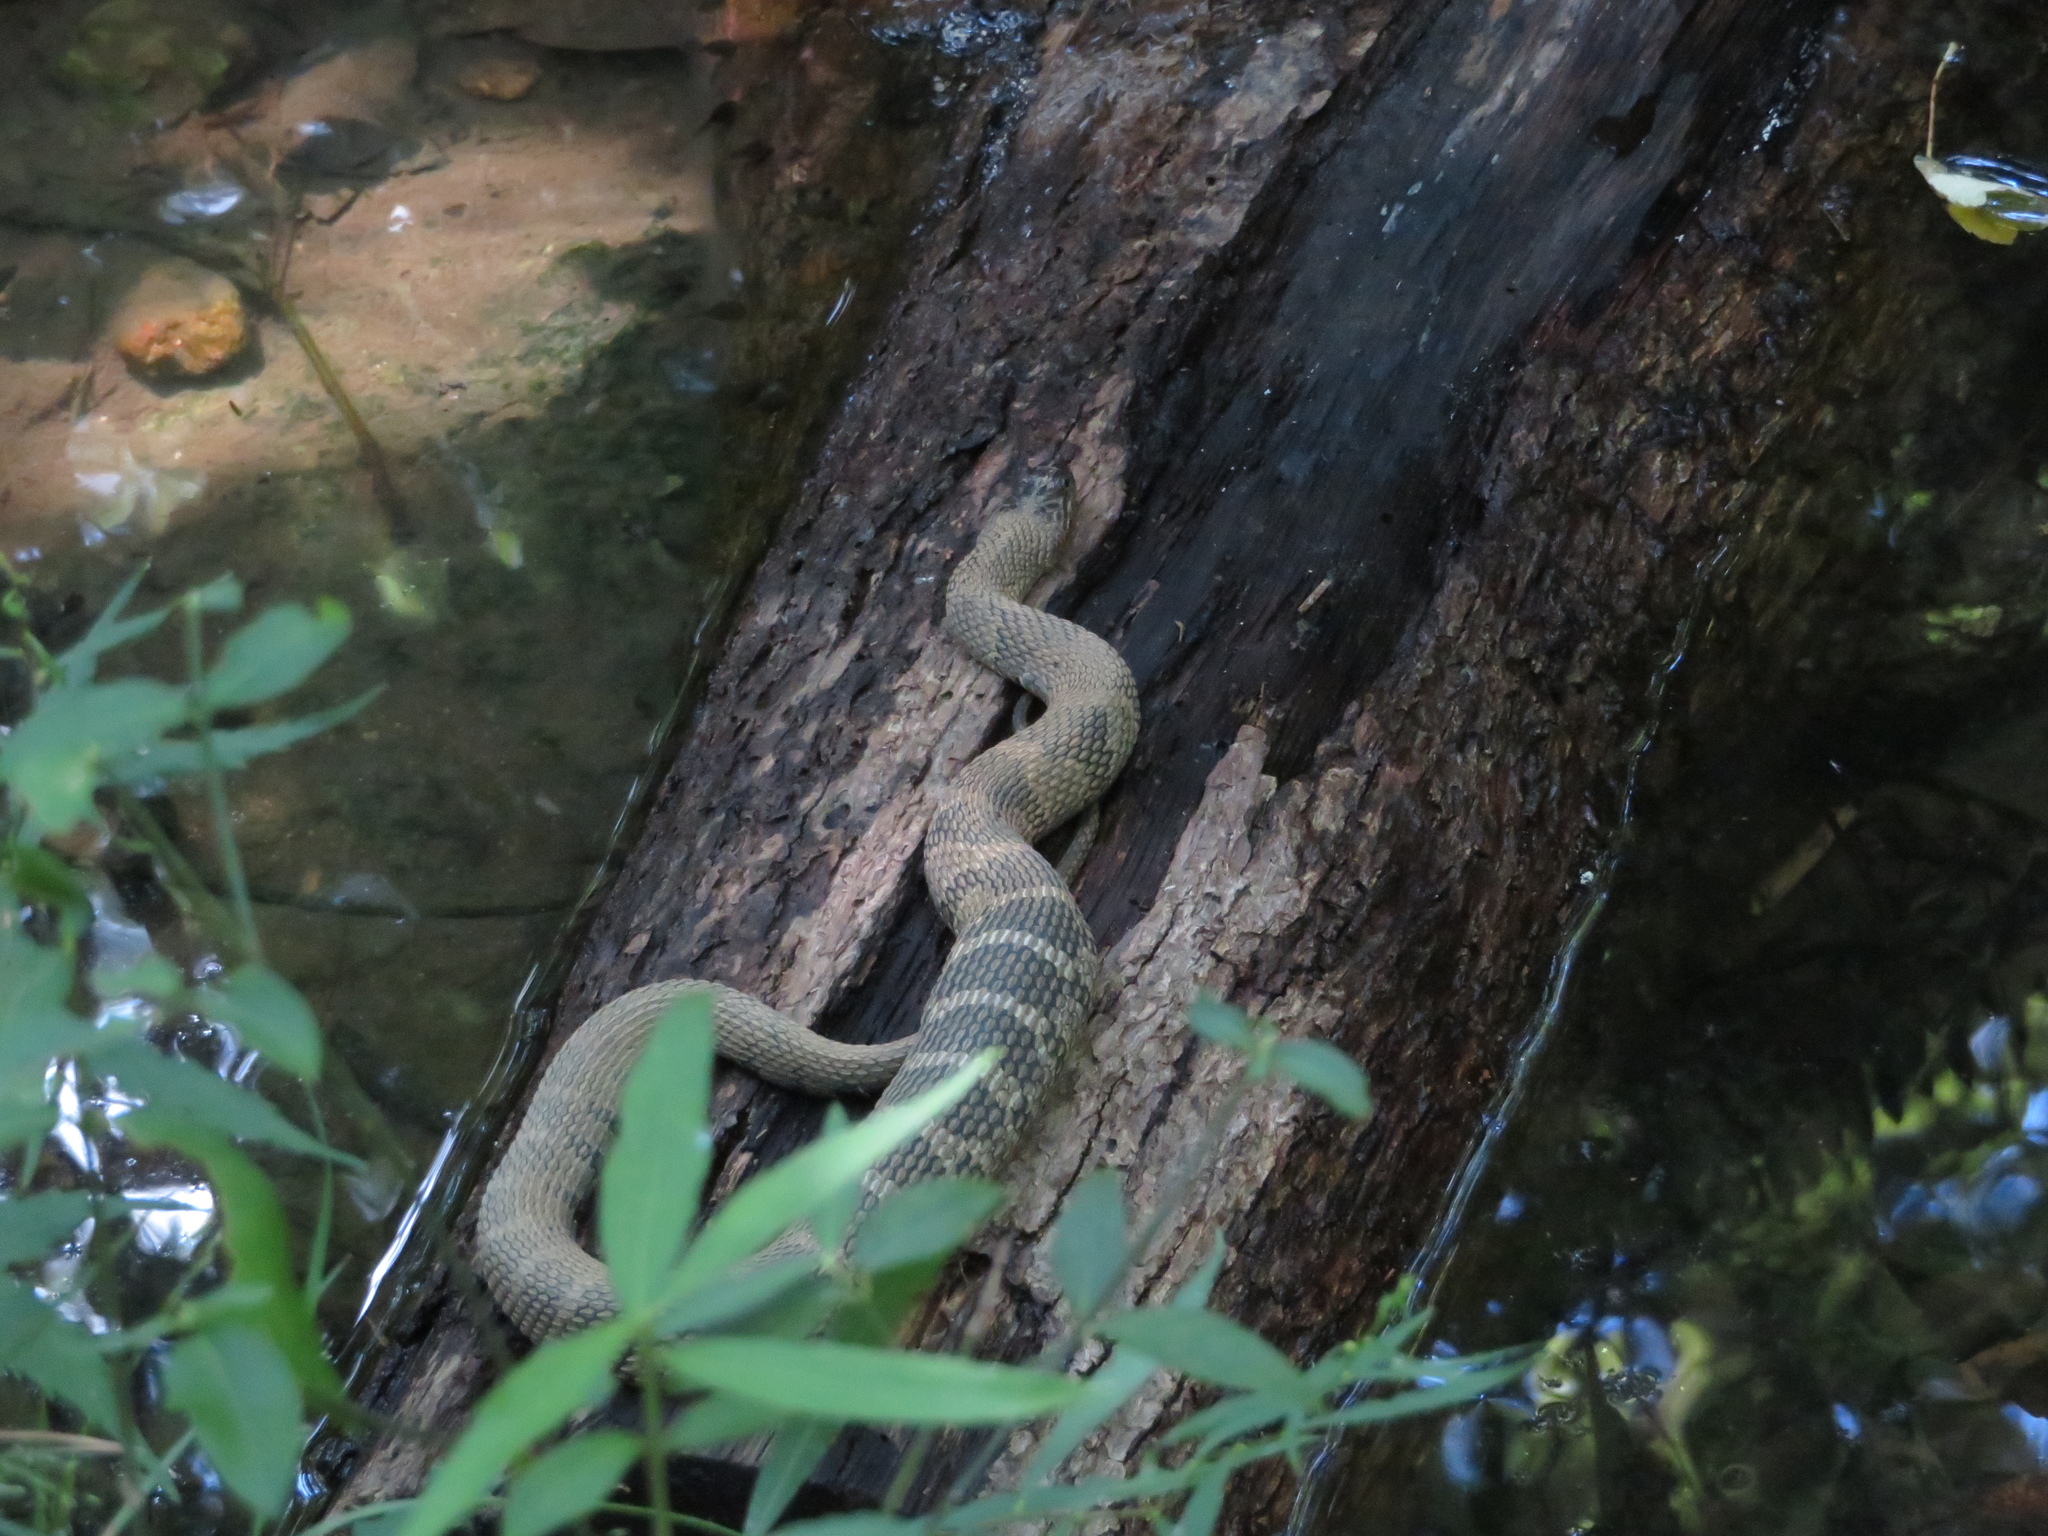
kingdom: Animalia
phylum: Chordata
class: Squamata
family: Colubridae
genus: Nerodia
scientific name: Nerodia sipedon
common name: Northern water snake
